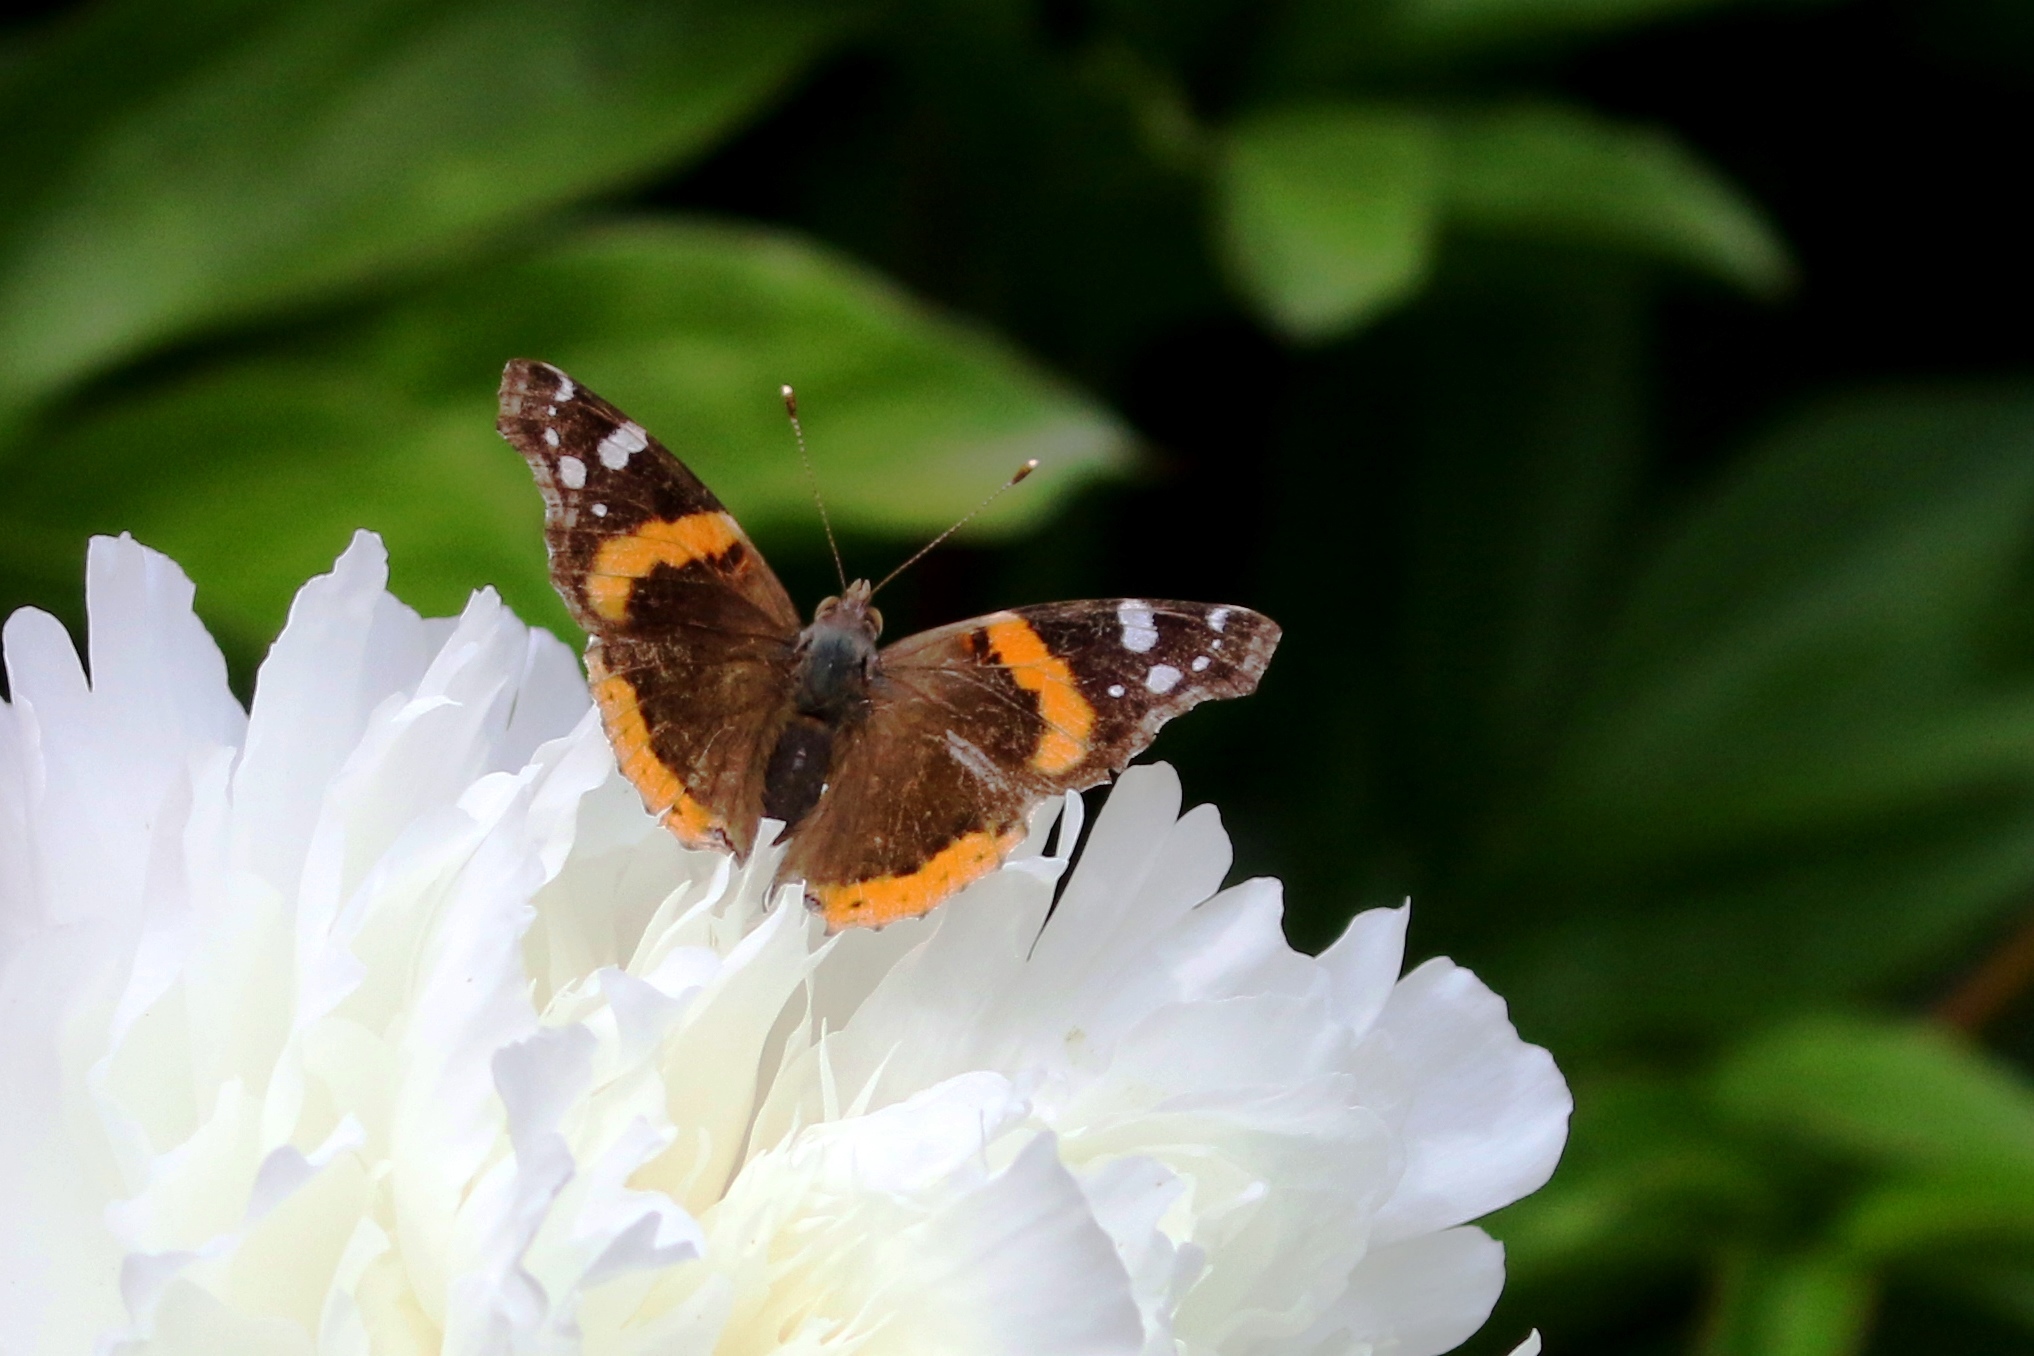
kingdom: Animalia
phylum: Arthropoda
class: Insecta
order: Lepidoptera
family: Nymphalidae
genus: Vanessa
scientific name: Vanessa atalanta
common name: Red admiral
